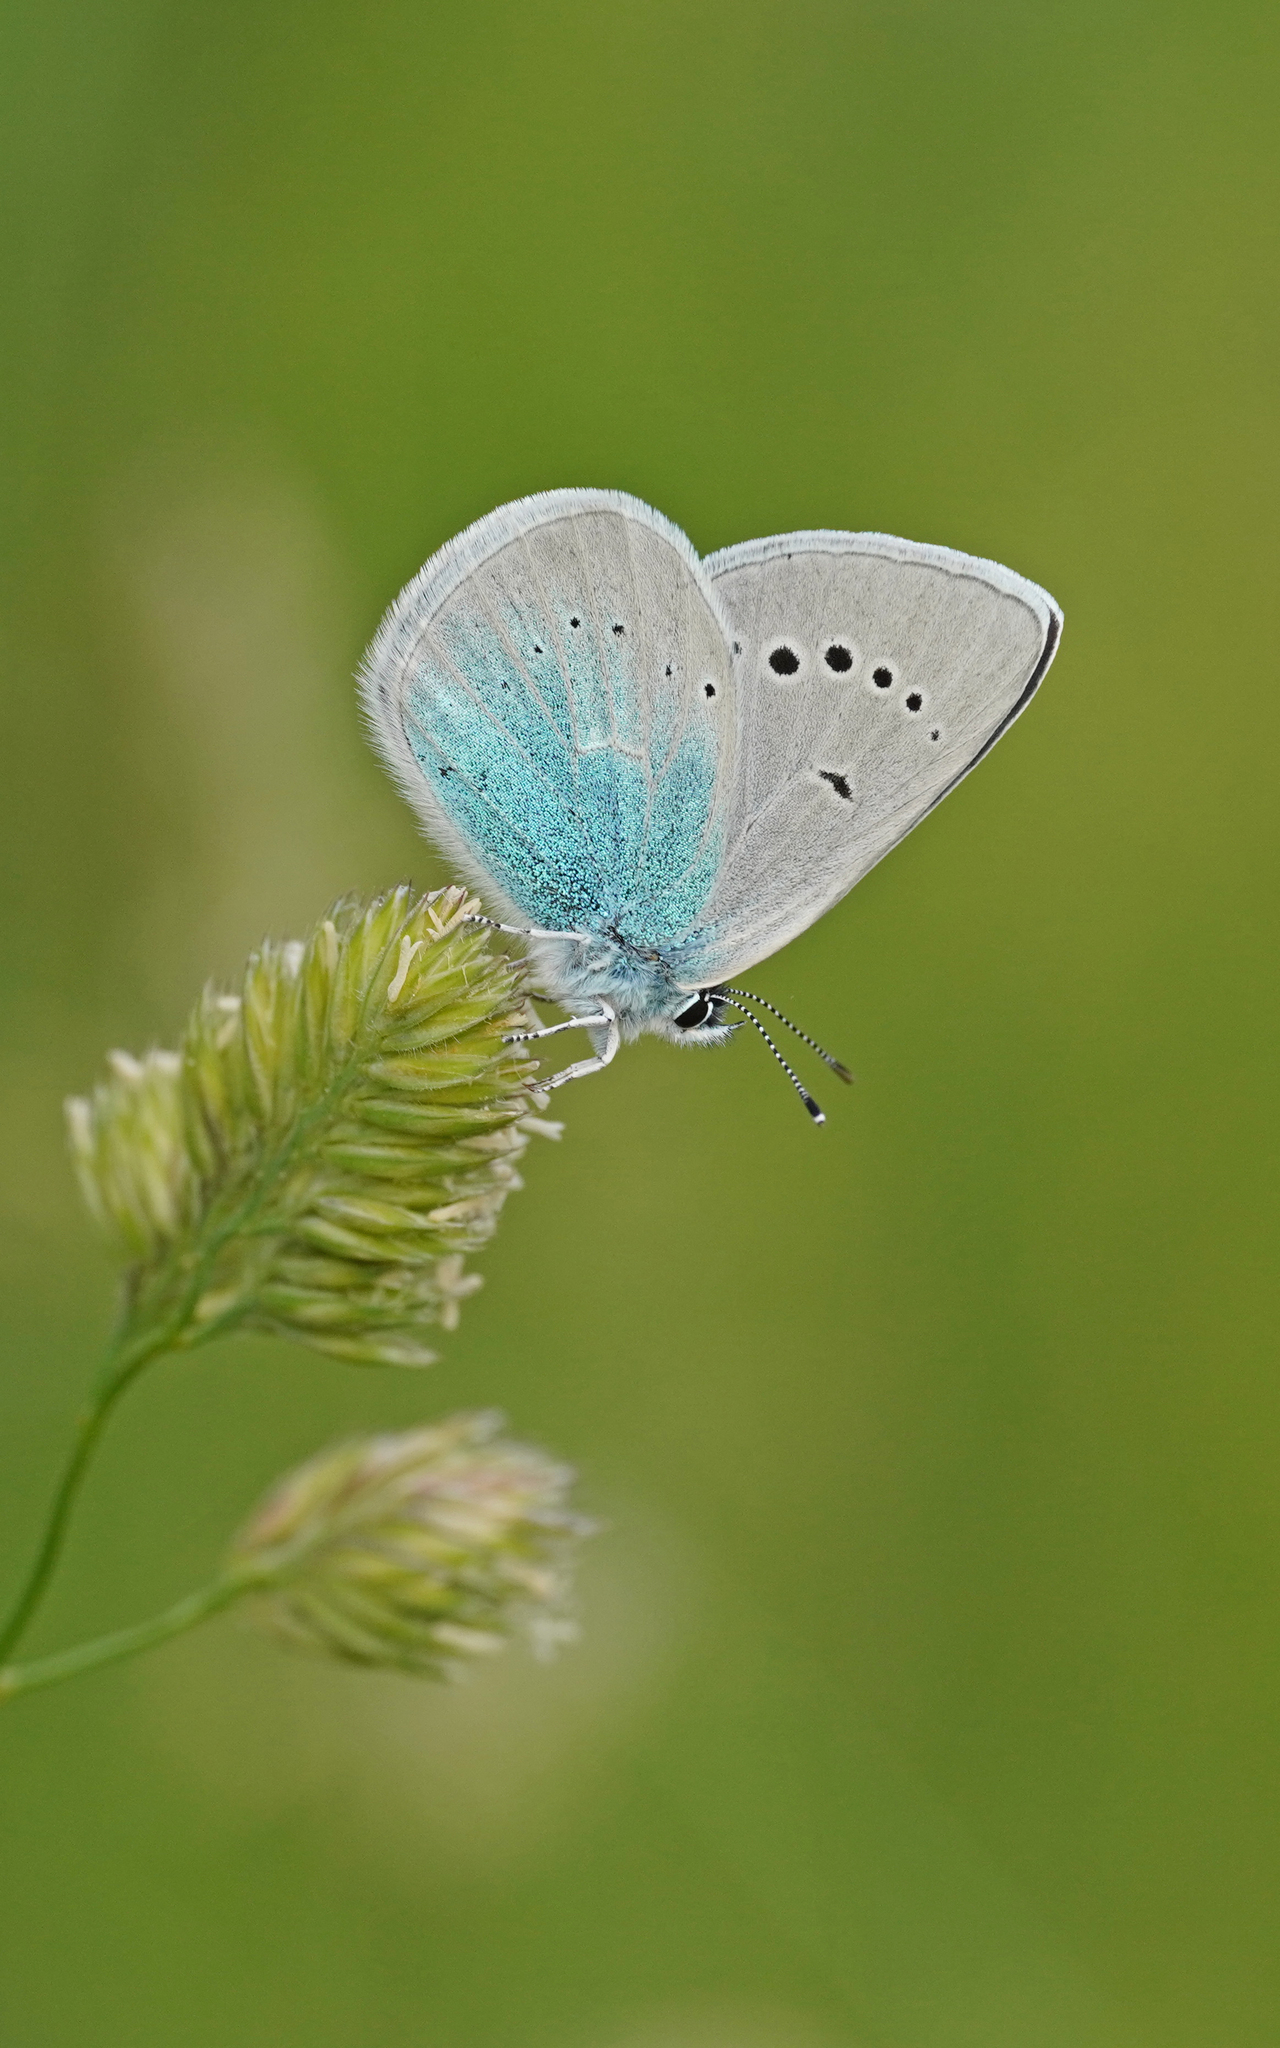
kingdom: Animalia
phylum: Arthropoda
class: Insecta
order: Lepidoptera
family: Lycaenidae
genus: Glaucopsyche
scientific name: Glaucopsyche alexis
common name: Green-underside blue
